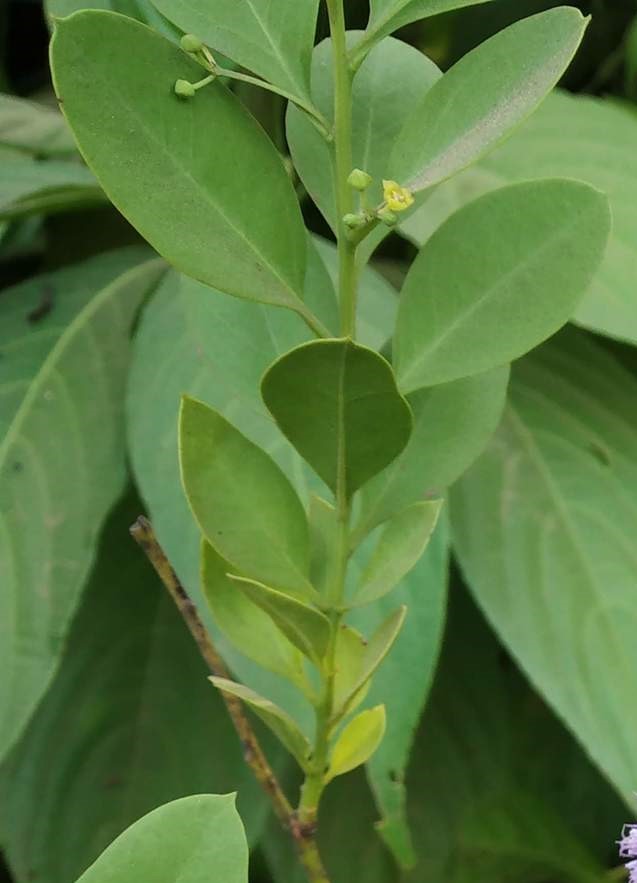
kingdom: Plantae
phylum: Tracheophyta
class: Magnoliopsida
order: Santalales
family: Santalaceae
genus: Osyris
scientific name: Osyris lanceolata
